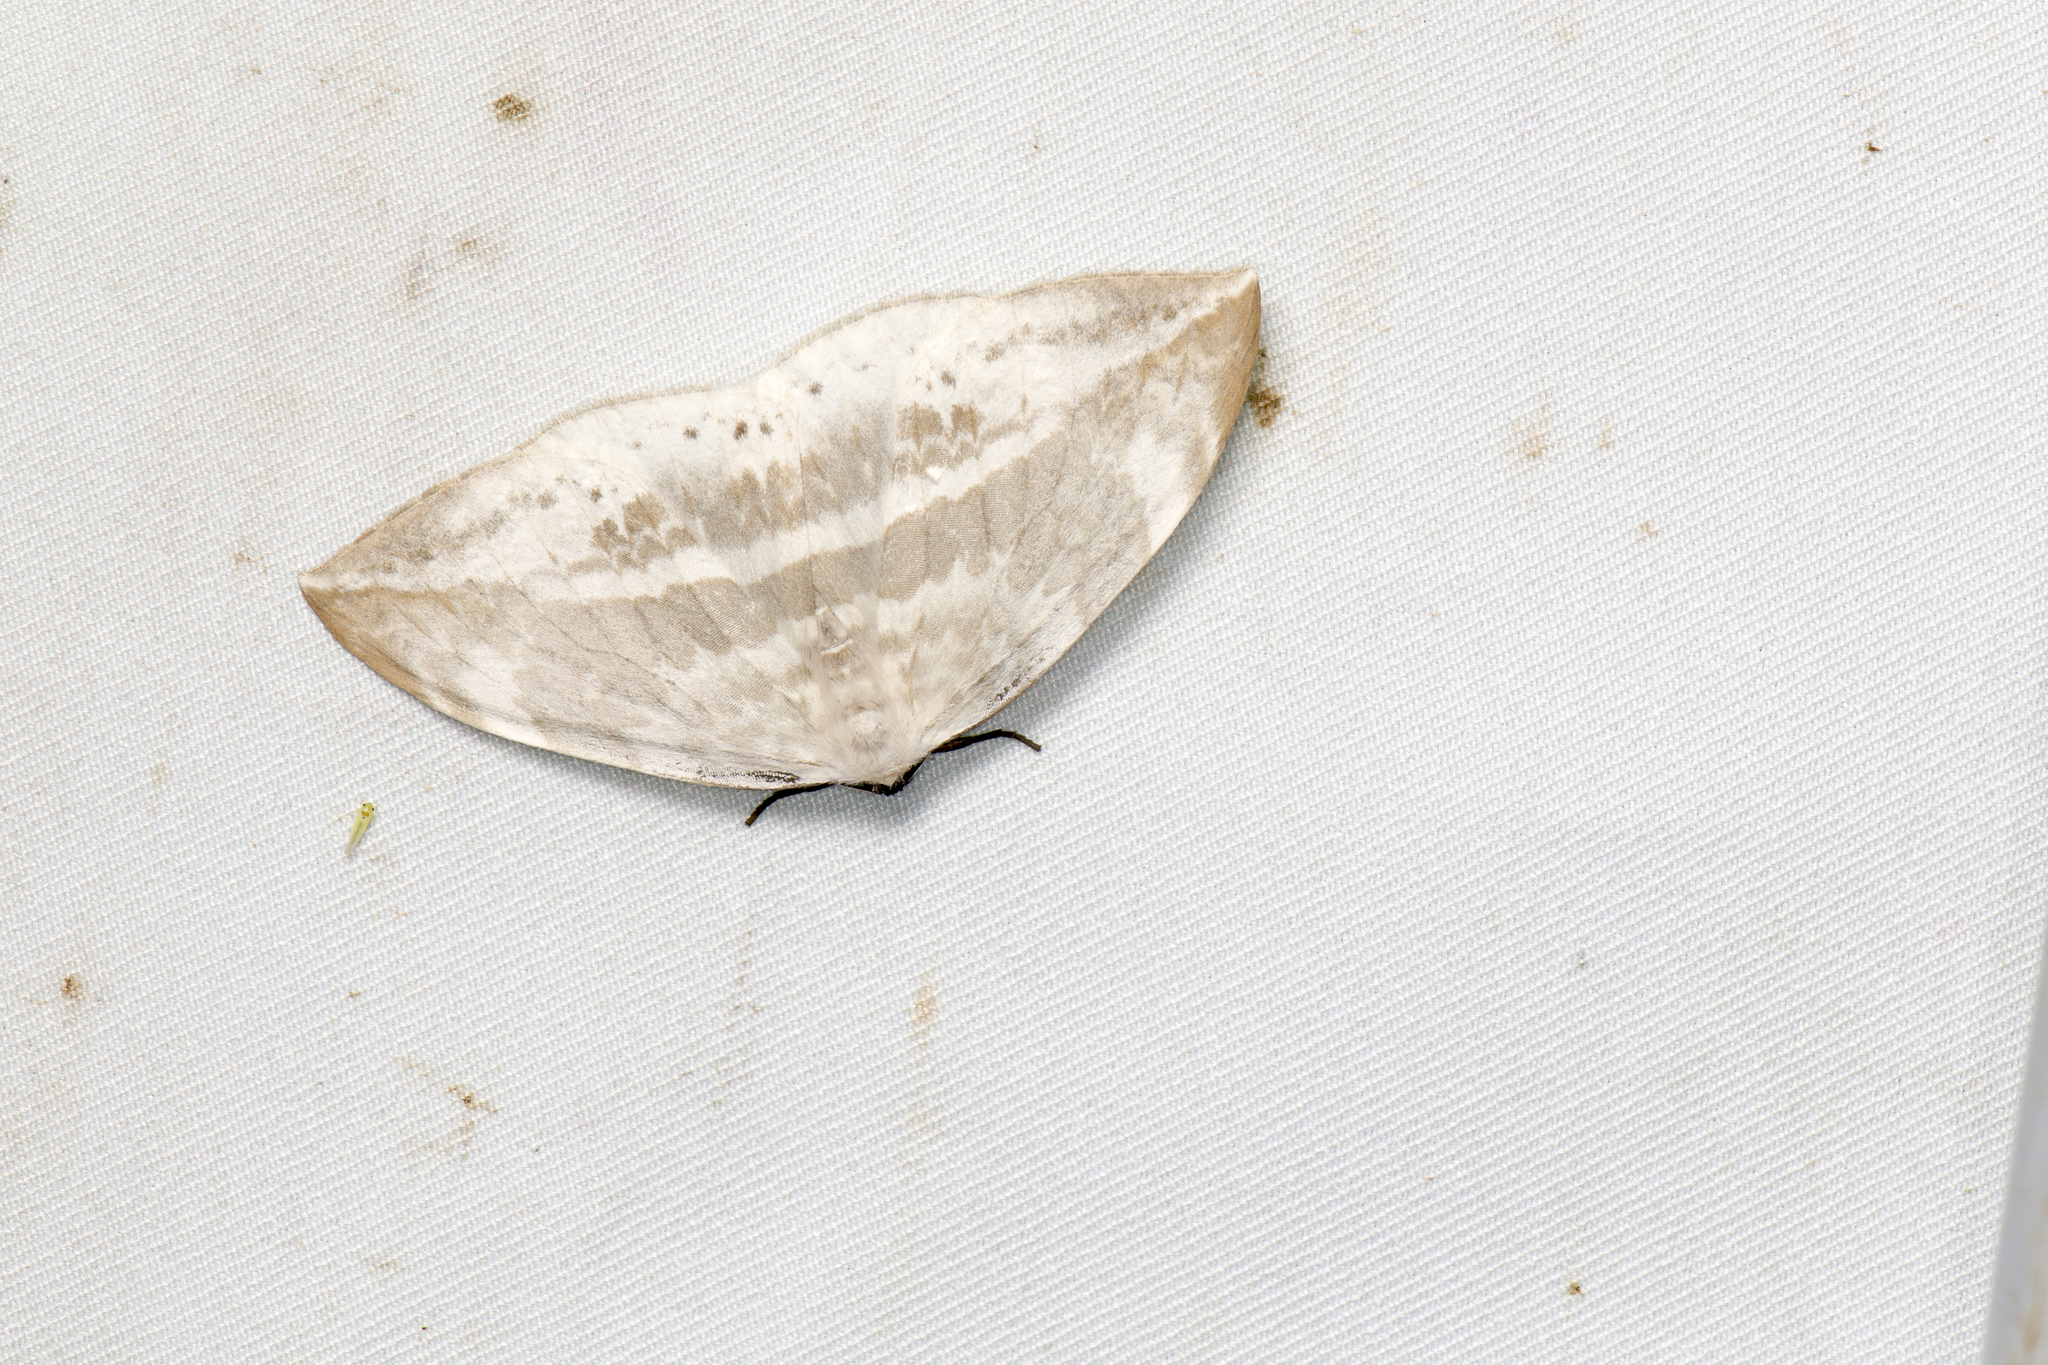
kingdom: Animalia
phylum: Arthropoda
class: Insecta
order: Lepidoptera
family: Drepanidae
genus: Cyclidia
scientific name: Cyclidia substigmaria
